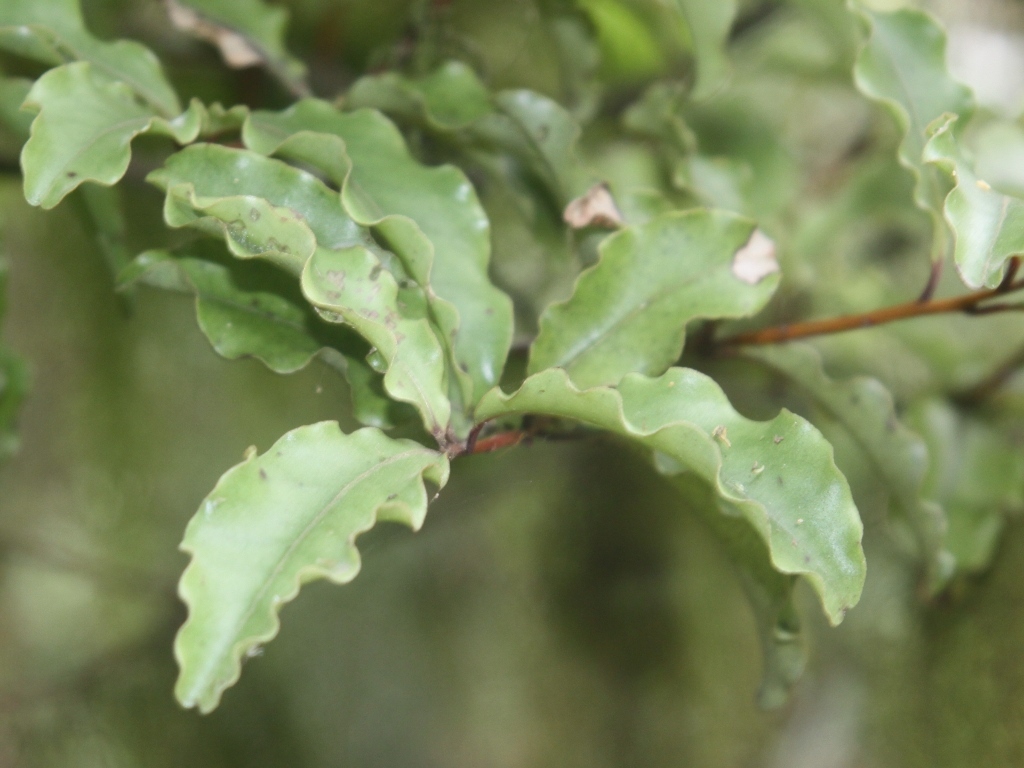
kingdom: Plantae
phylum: Tracheophyta
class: Magnoliopsida
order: Ericales
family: Primulaceae
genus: Myrsine
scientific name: Myrsine australis
